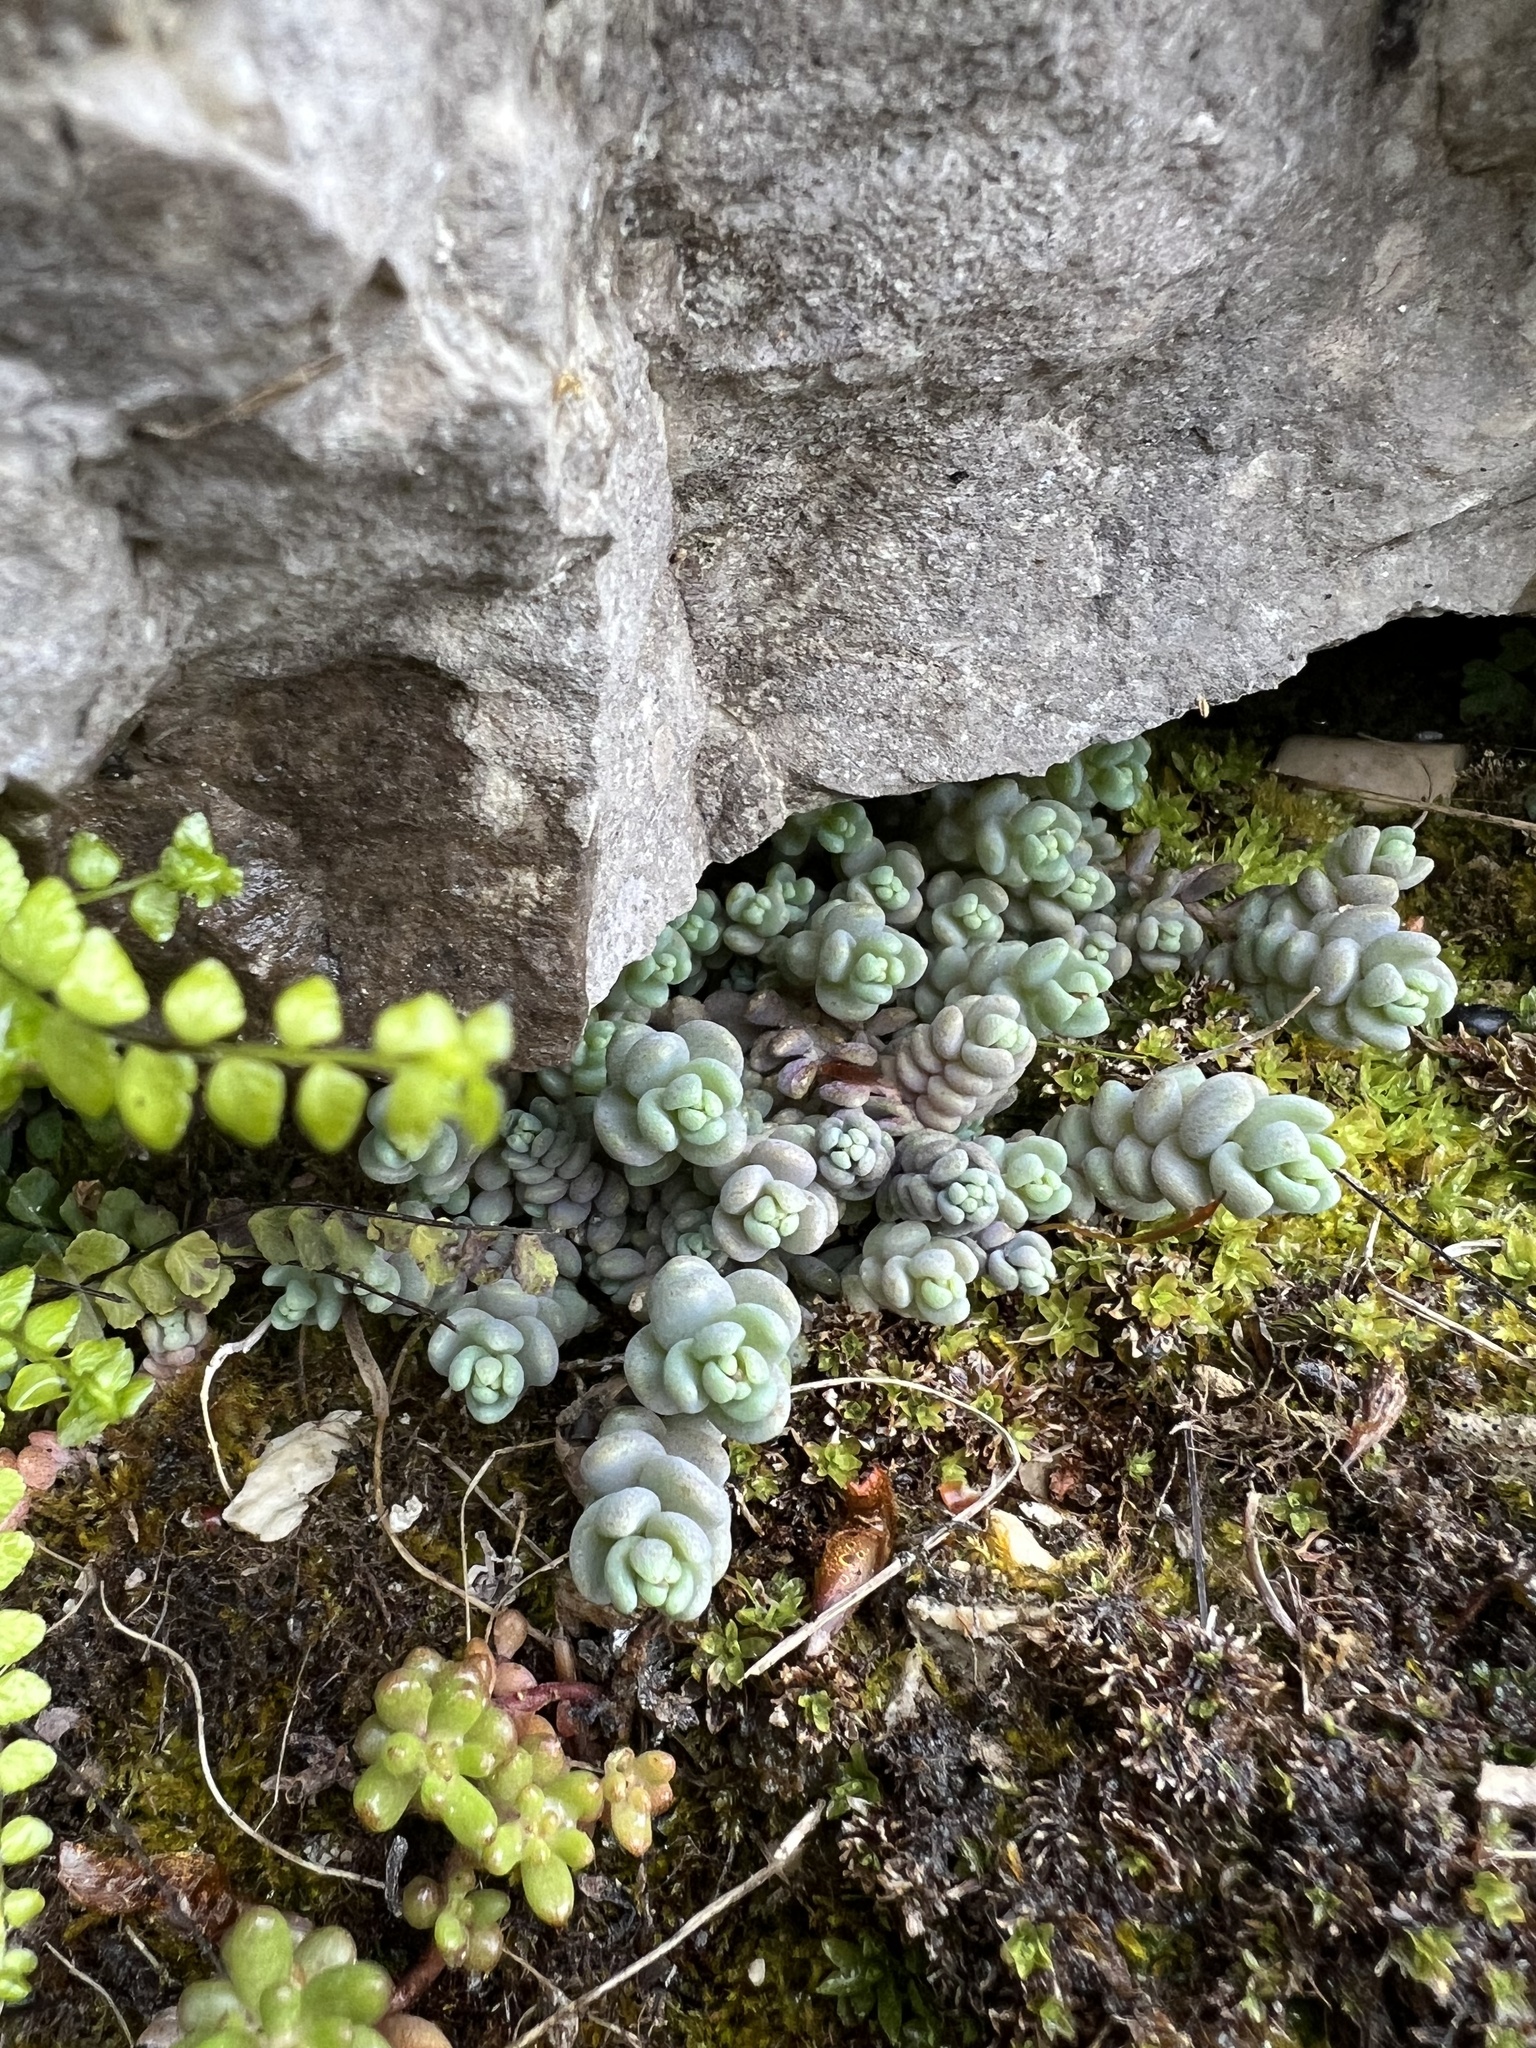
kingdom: Plantae
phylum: Tracheophyta
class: Magnoliopsida
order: Saxifragales
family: Crassulaceae
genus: Sedum
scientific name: Sedum dasyphyllum
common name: Thick-leaf stonecrop
